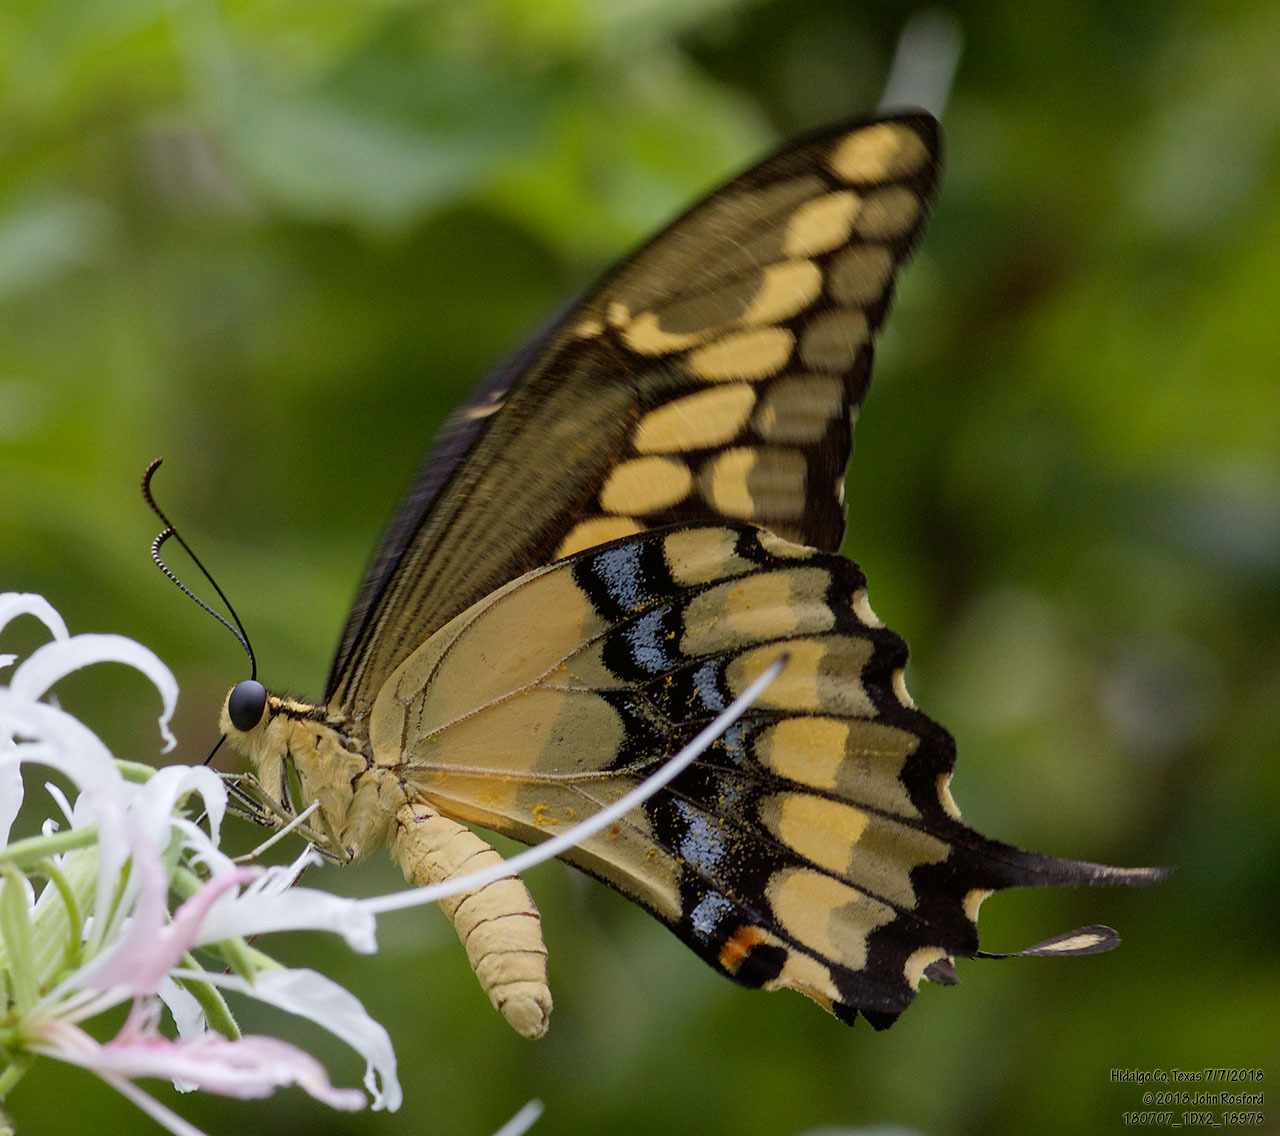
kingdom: Animalia
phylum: Arthropoda
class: Insecta
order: Lepidoptera
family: Papilionidae
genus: Papilio
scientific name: Papilio rumiko
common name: Western giant swallowtail
